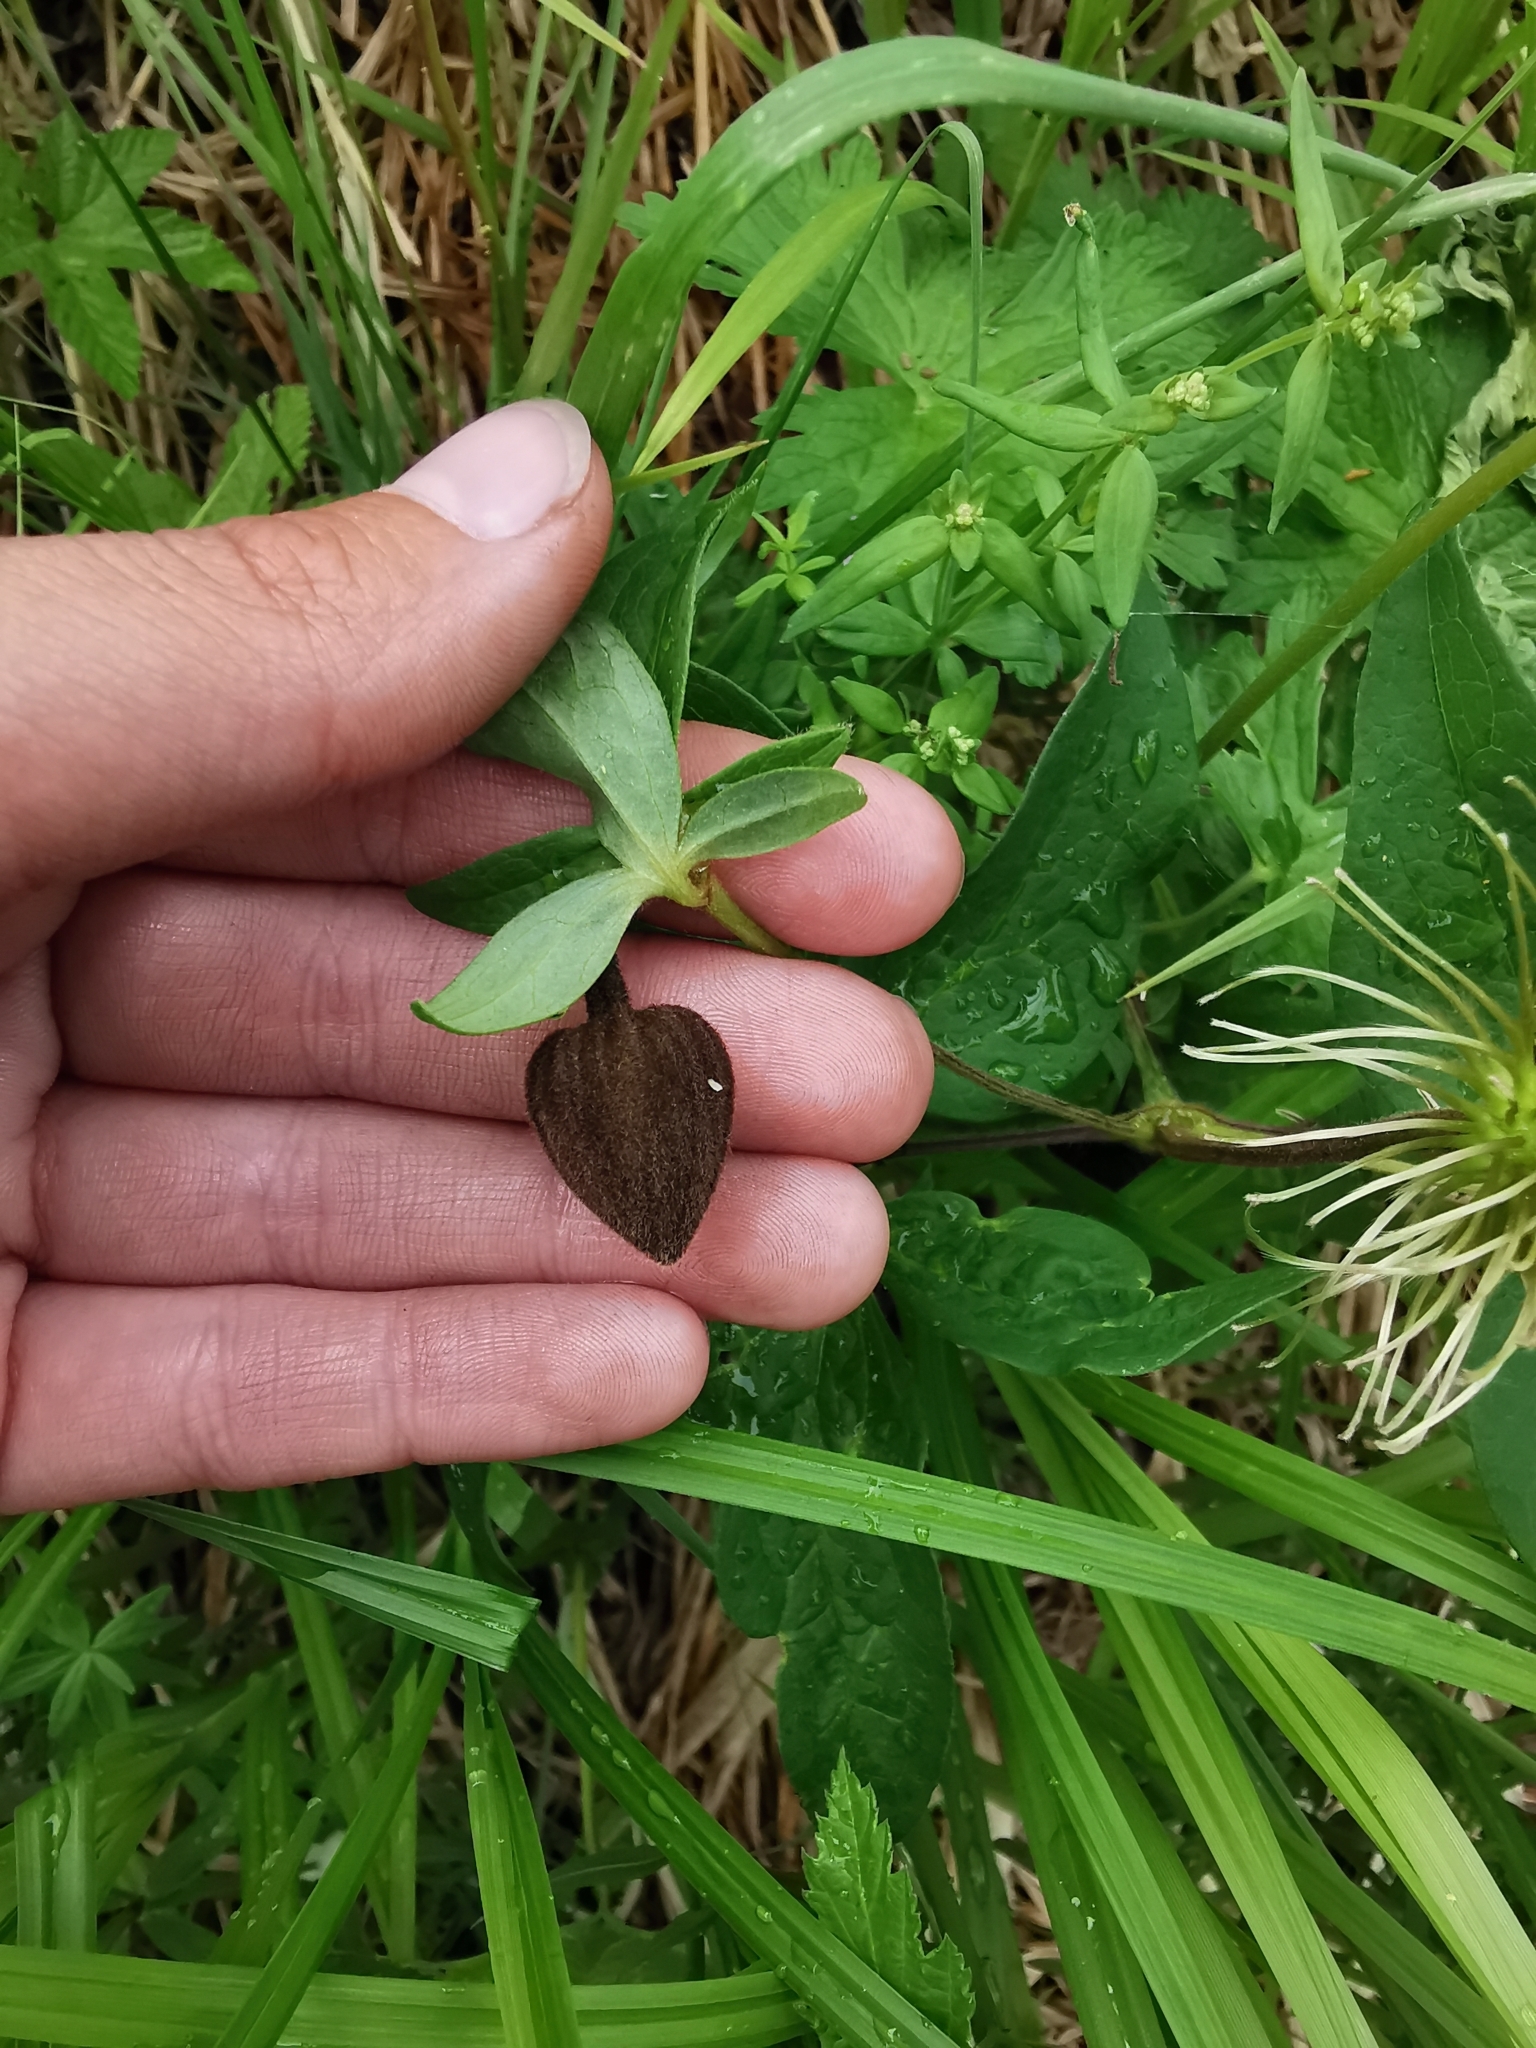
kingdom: Plantae
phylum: Tracheophyta
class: Magnoliopsida
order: Ranunculales
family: Ranunculaceae
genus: Clematis
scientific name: Clematis fusca
